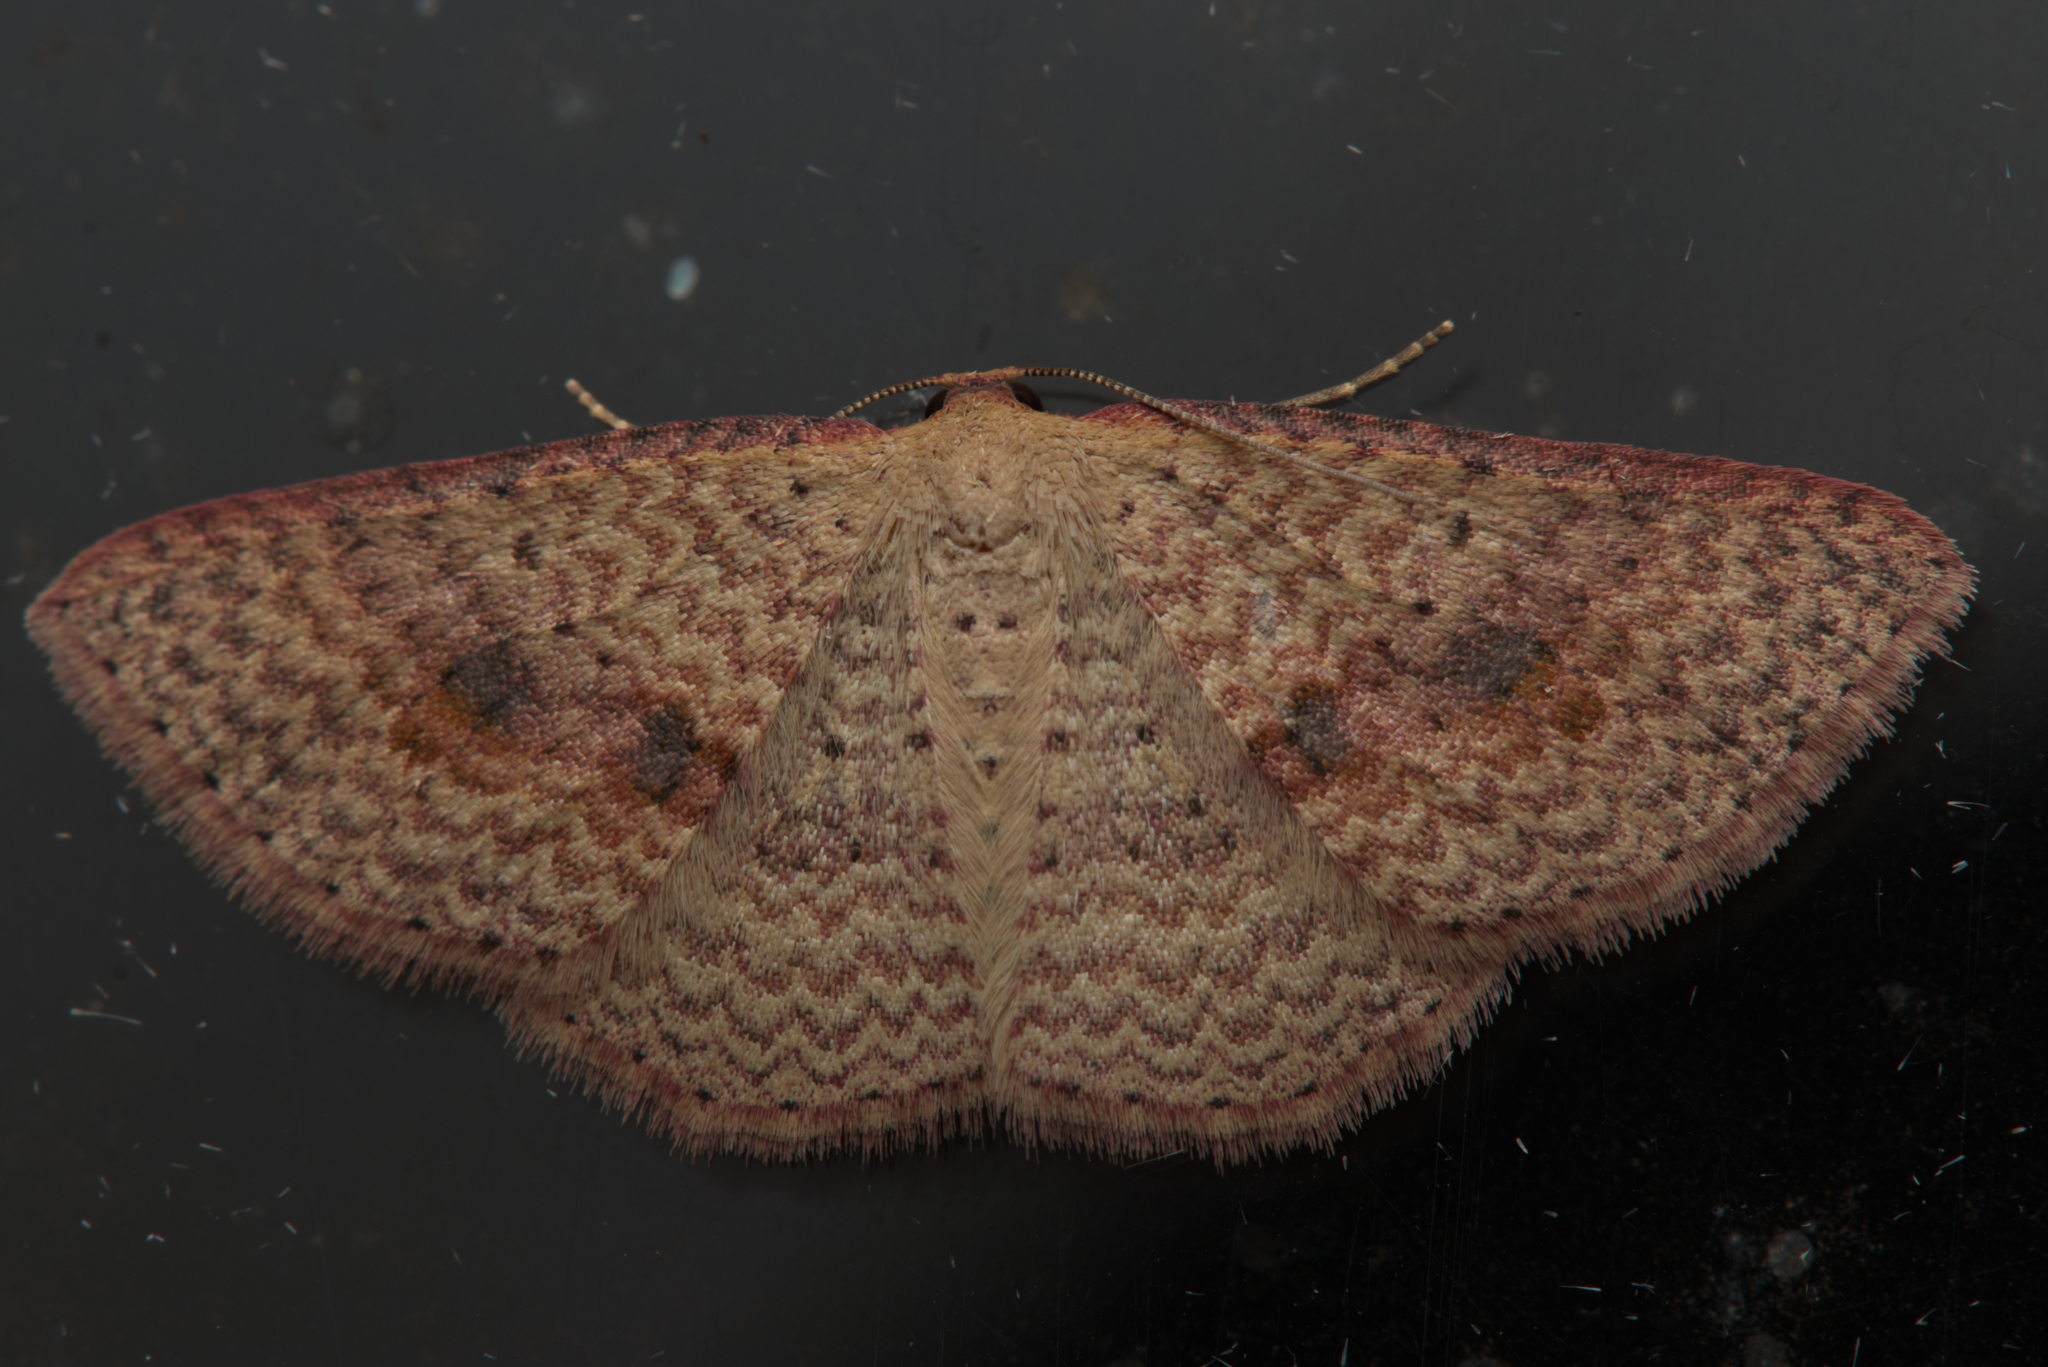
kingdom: Animalia
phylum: Arthropoda
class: Insecta
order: Lepidoptera
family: Geometridae
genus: Epicyme
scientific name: Epicyme rubropunctaria
